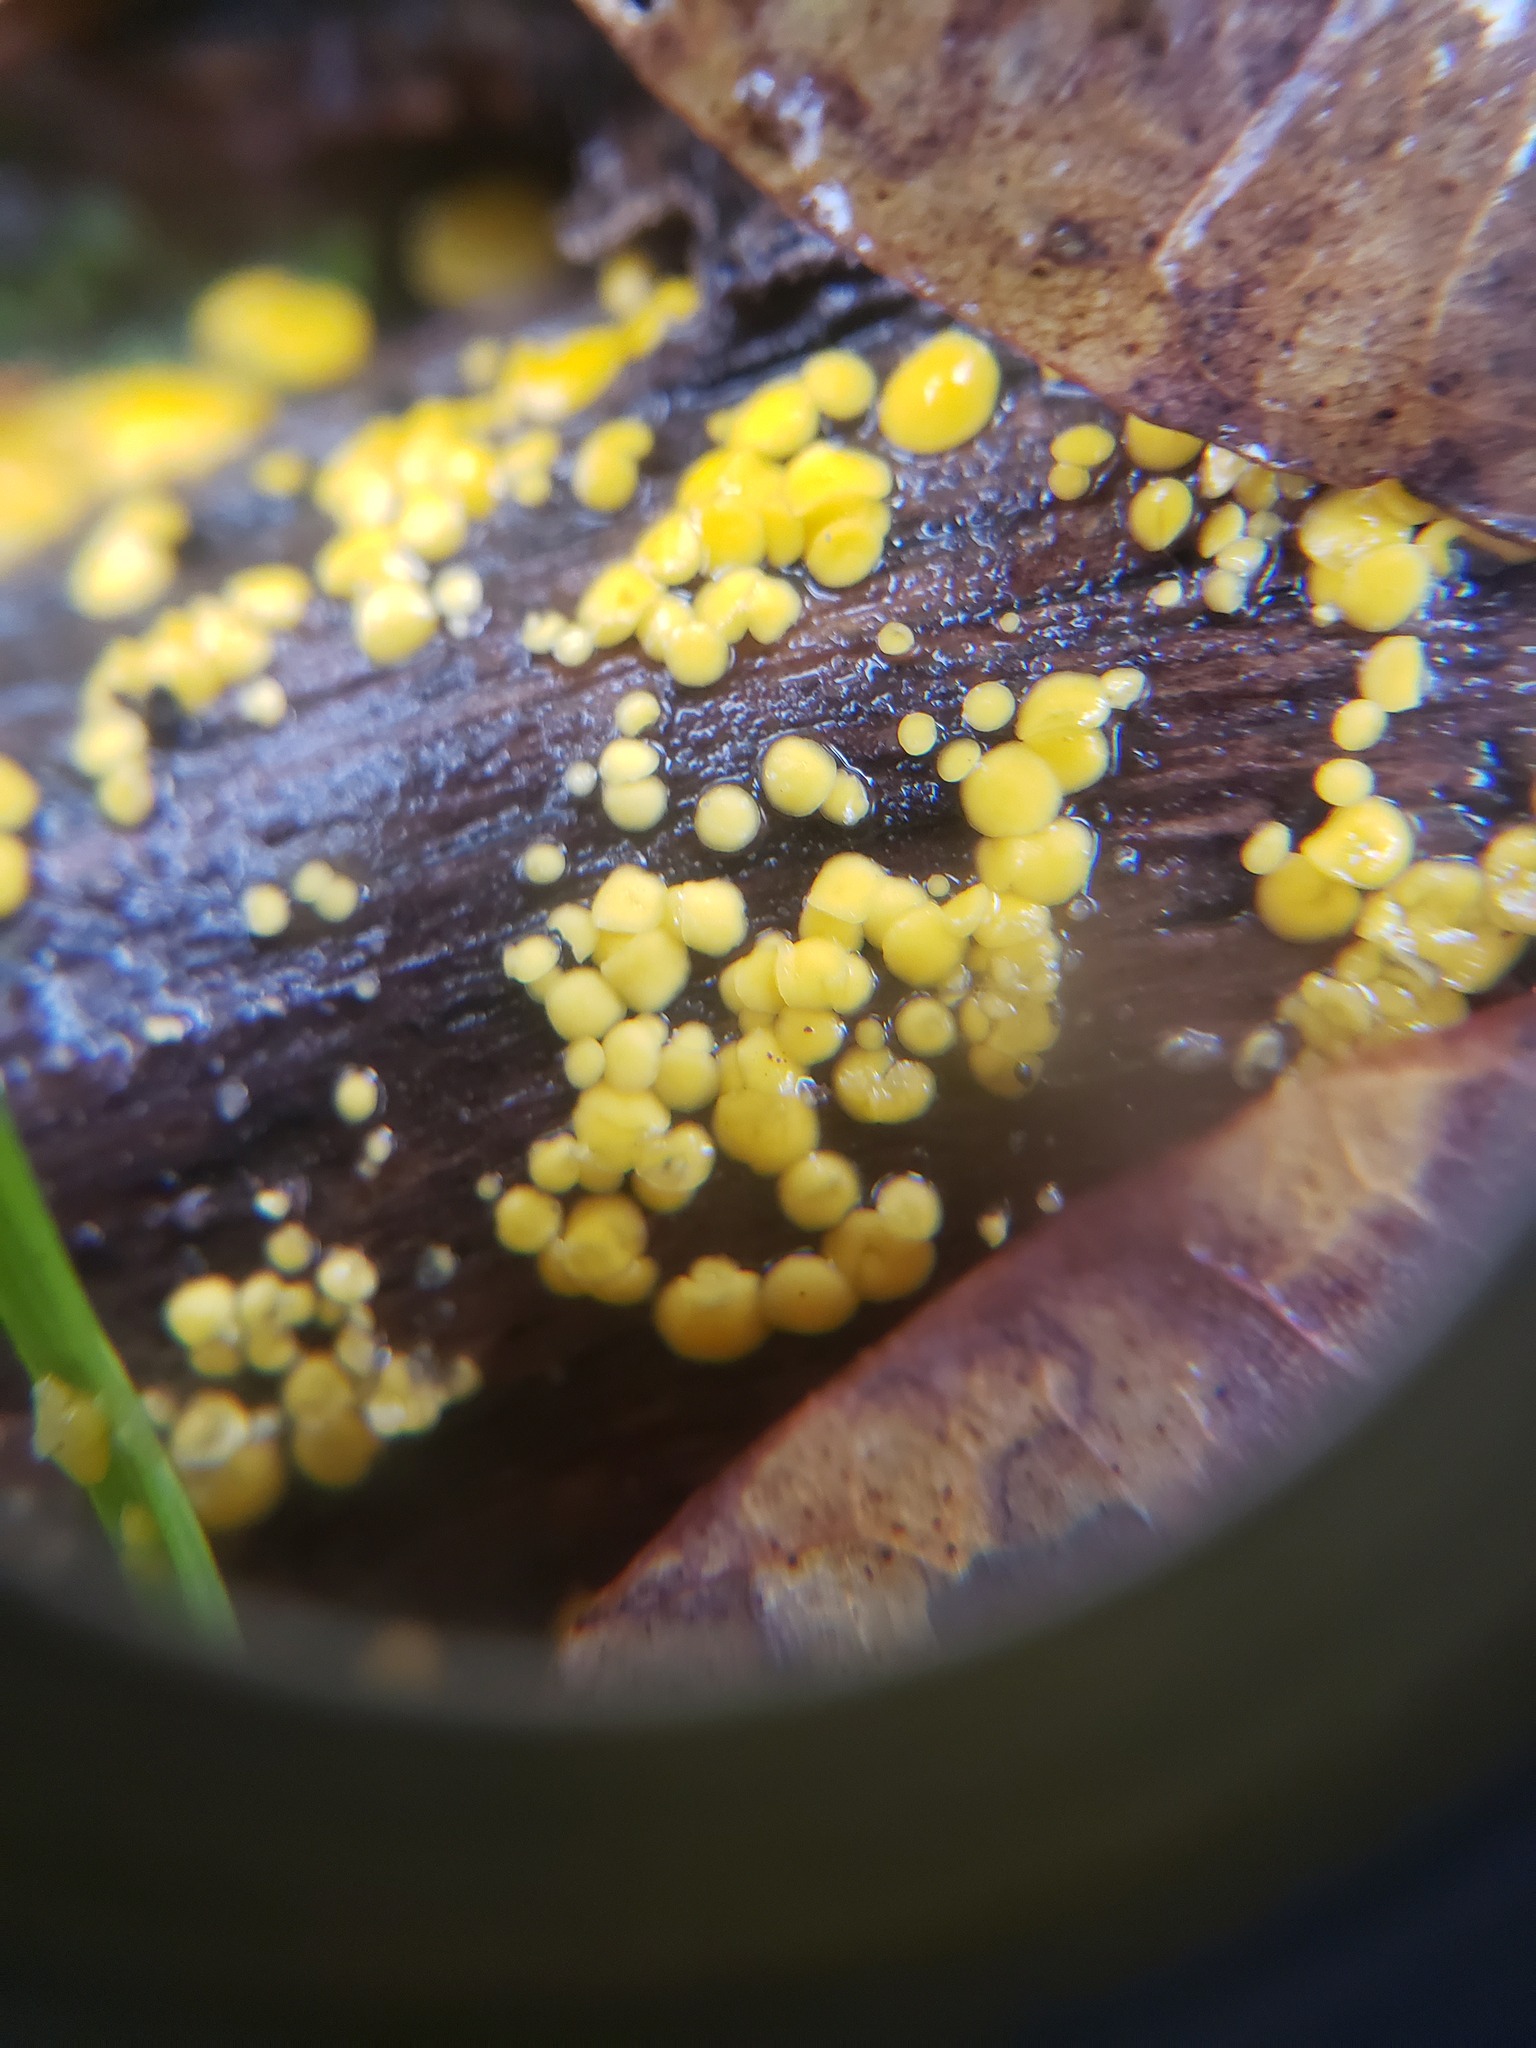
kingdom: Fungi
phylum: Ascomycota
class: Leotiomycetes
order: Helotiales
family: Pezizellaceae
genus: Calycina
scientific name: Calycina citrina
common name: Yellow fairy cups
